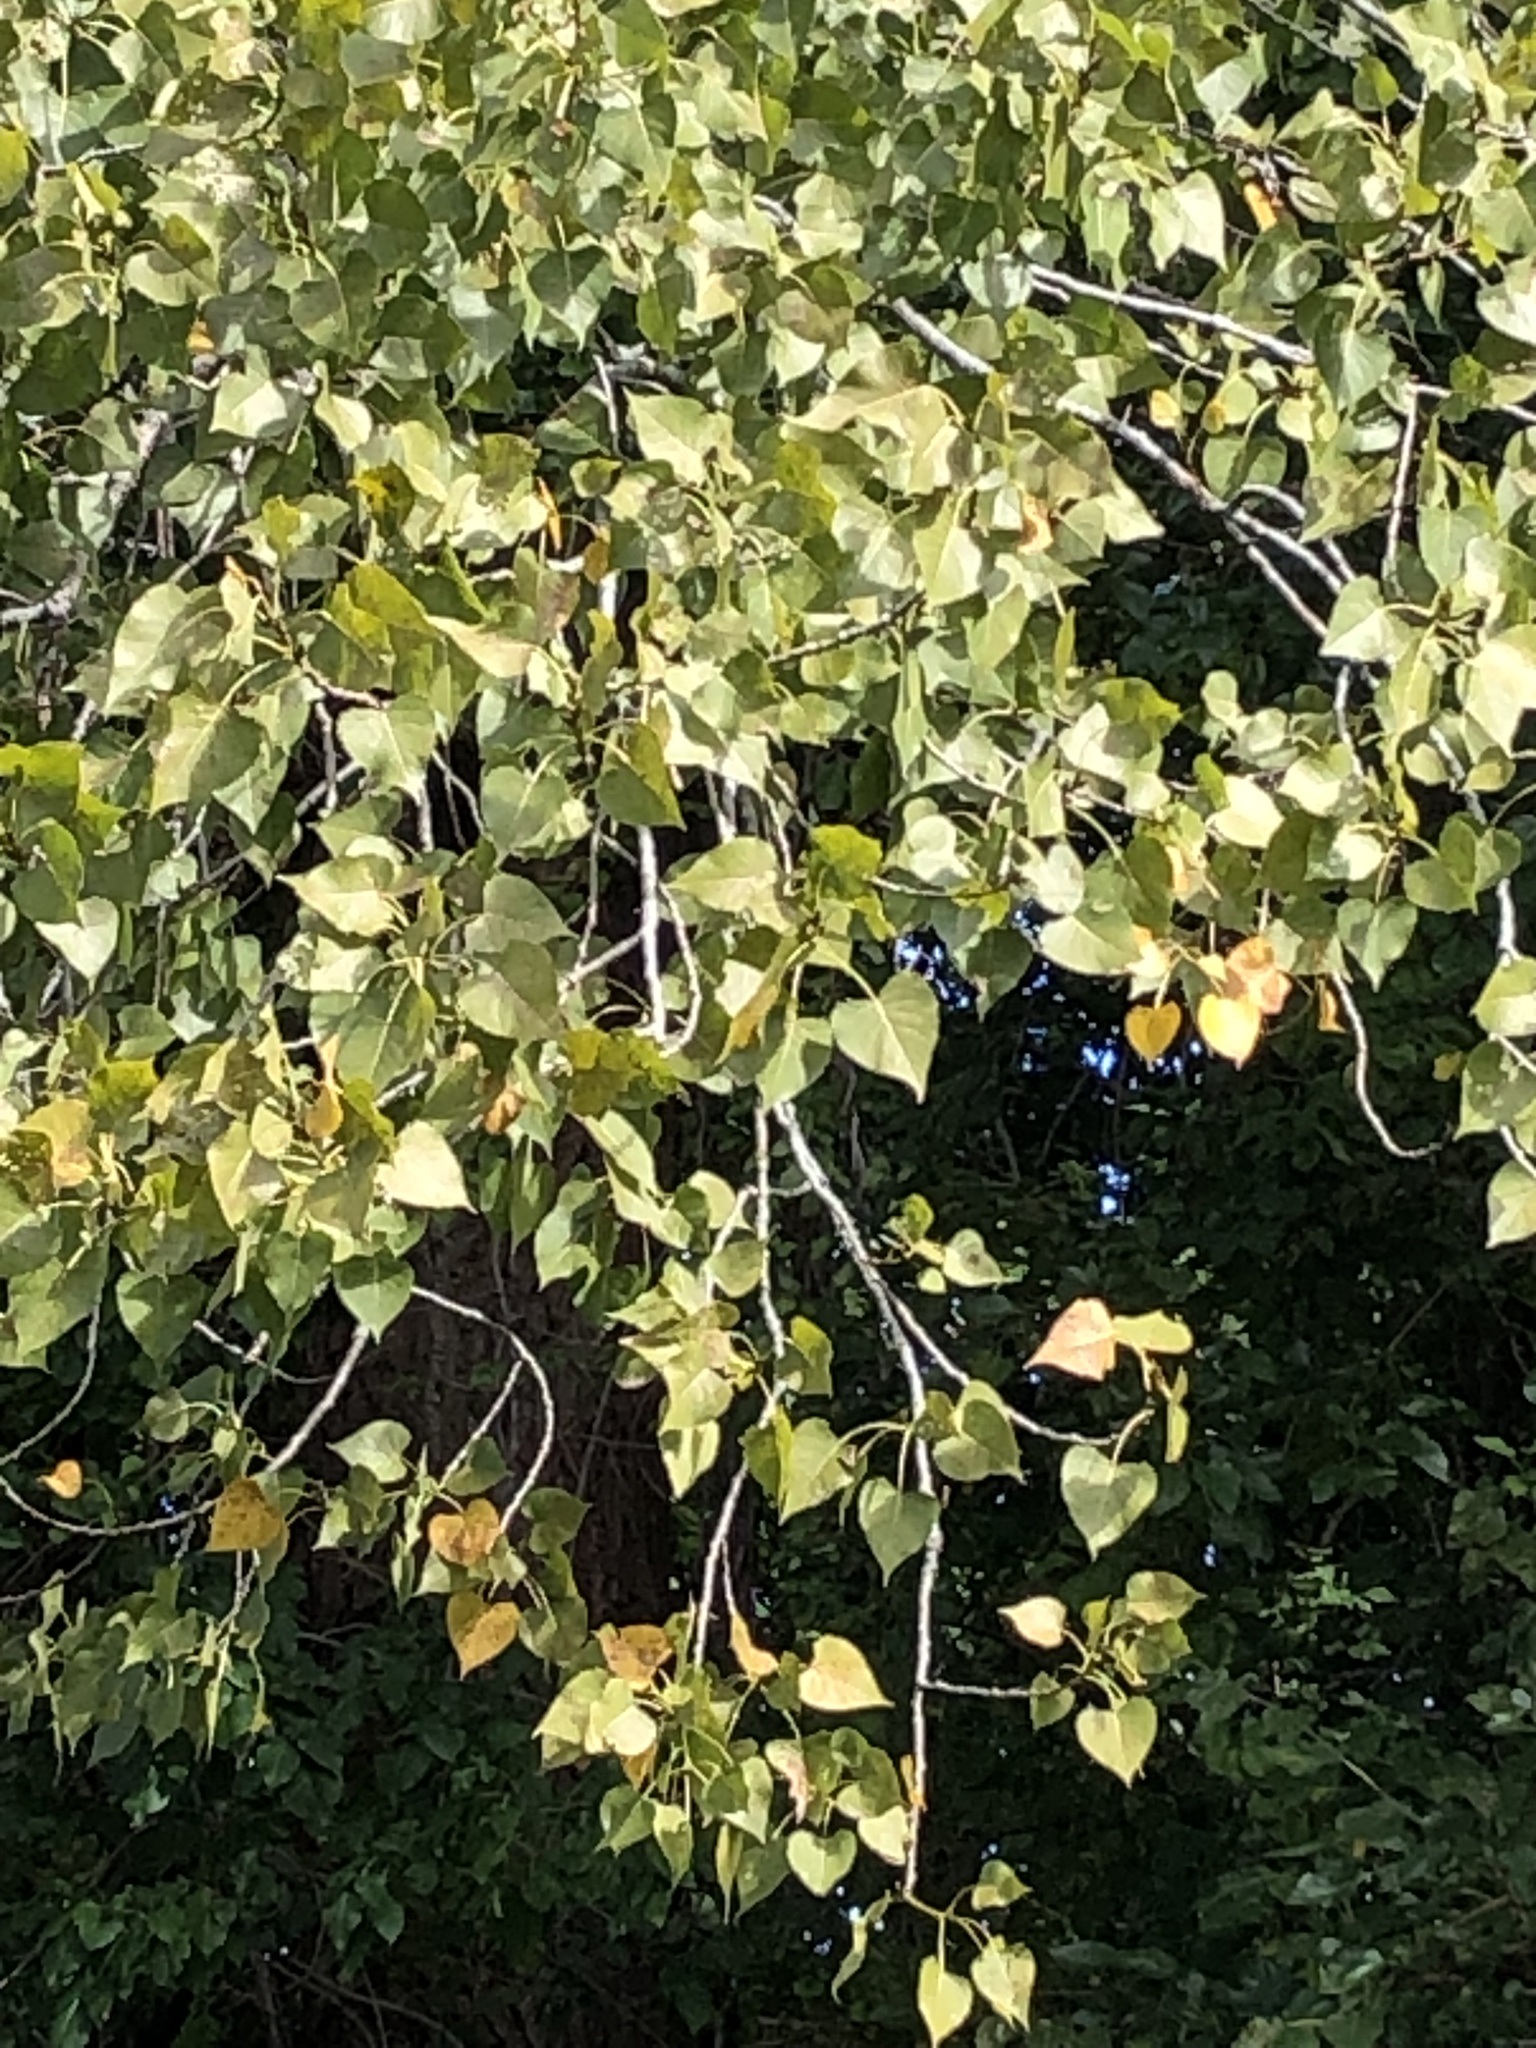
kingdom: Plantae
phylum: Tracheophyta
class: Magnoliopsida
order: Malpighiales
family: Salicaceae
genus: Populus
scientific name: Populus deltoides
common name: Eastern cottonwood
